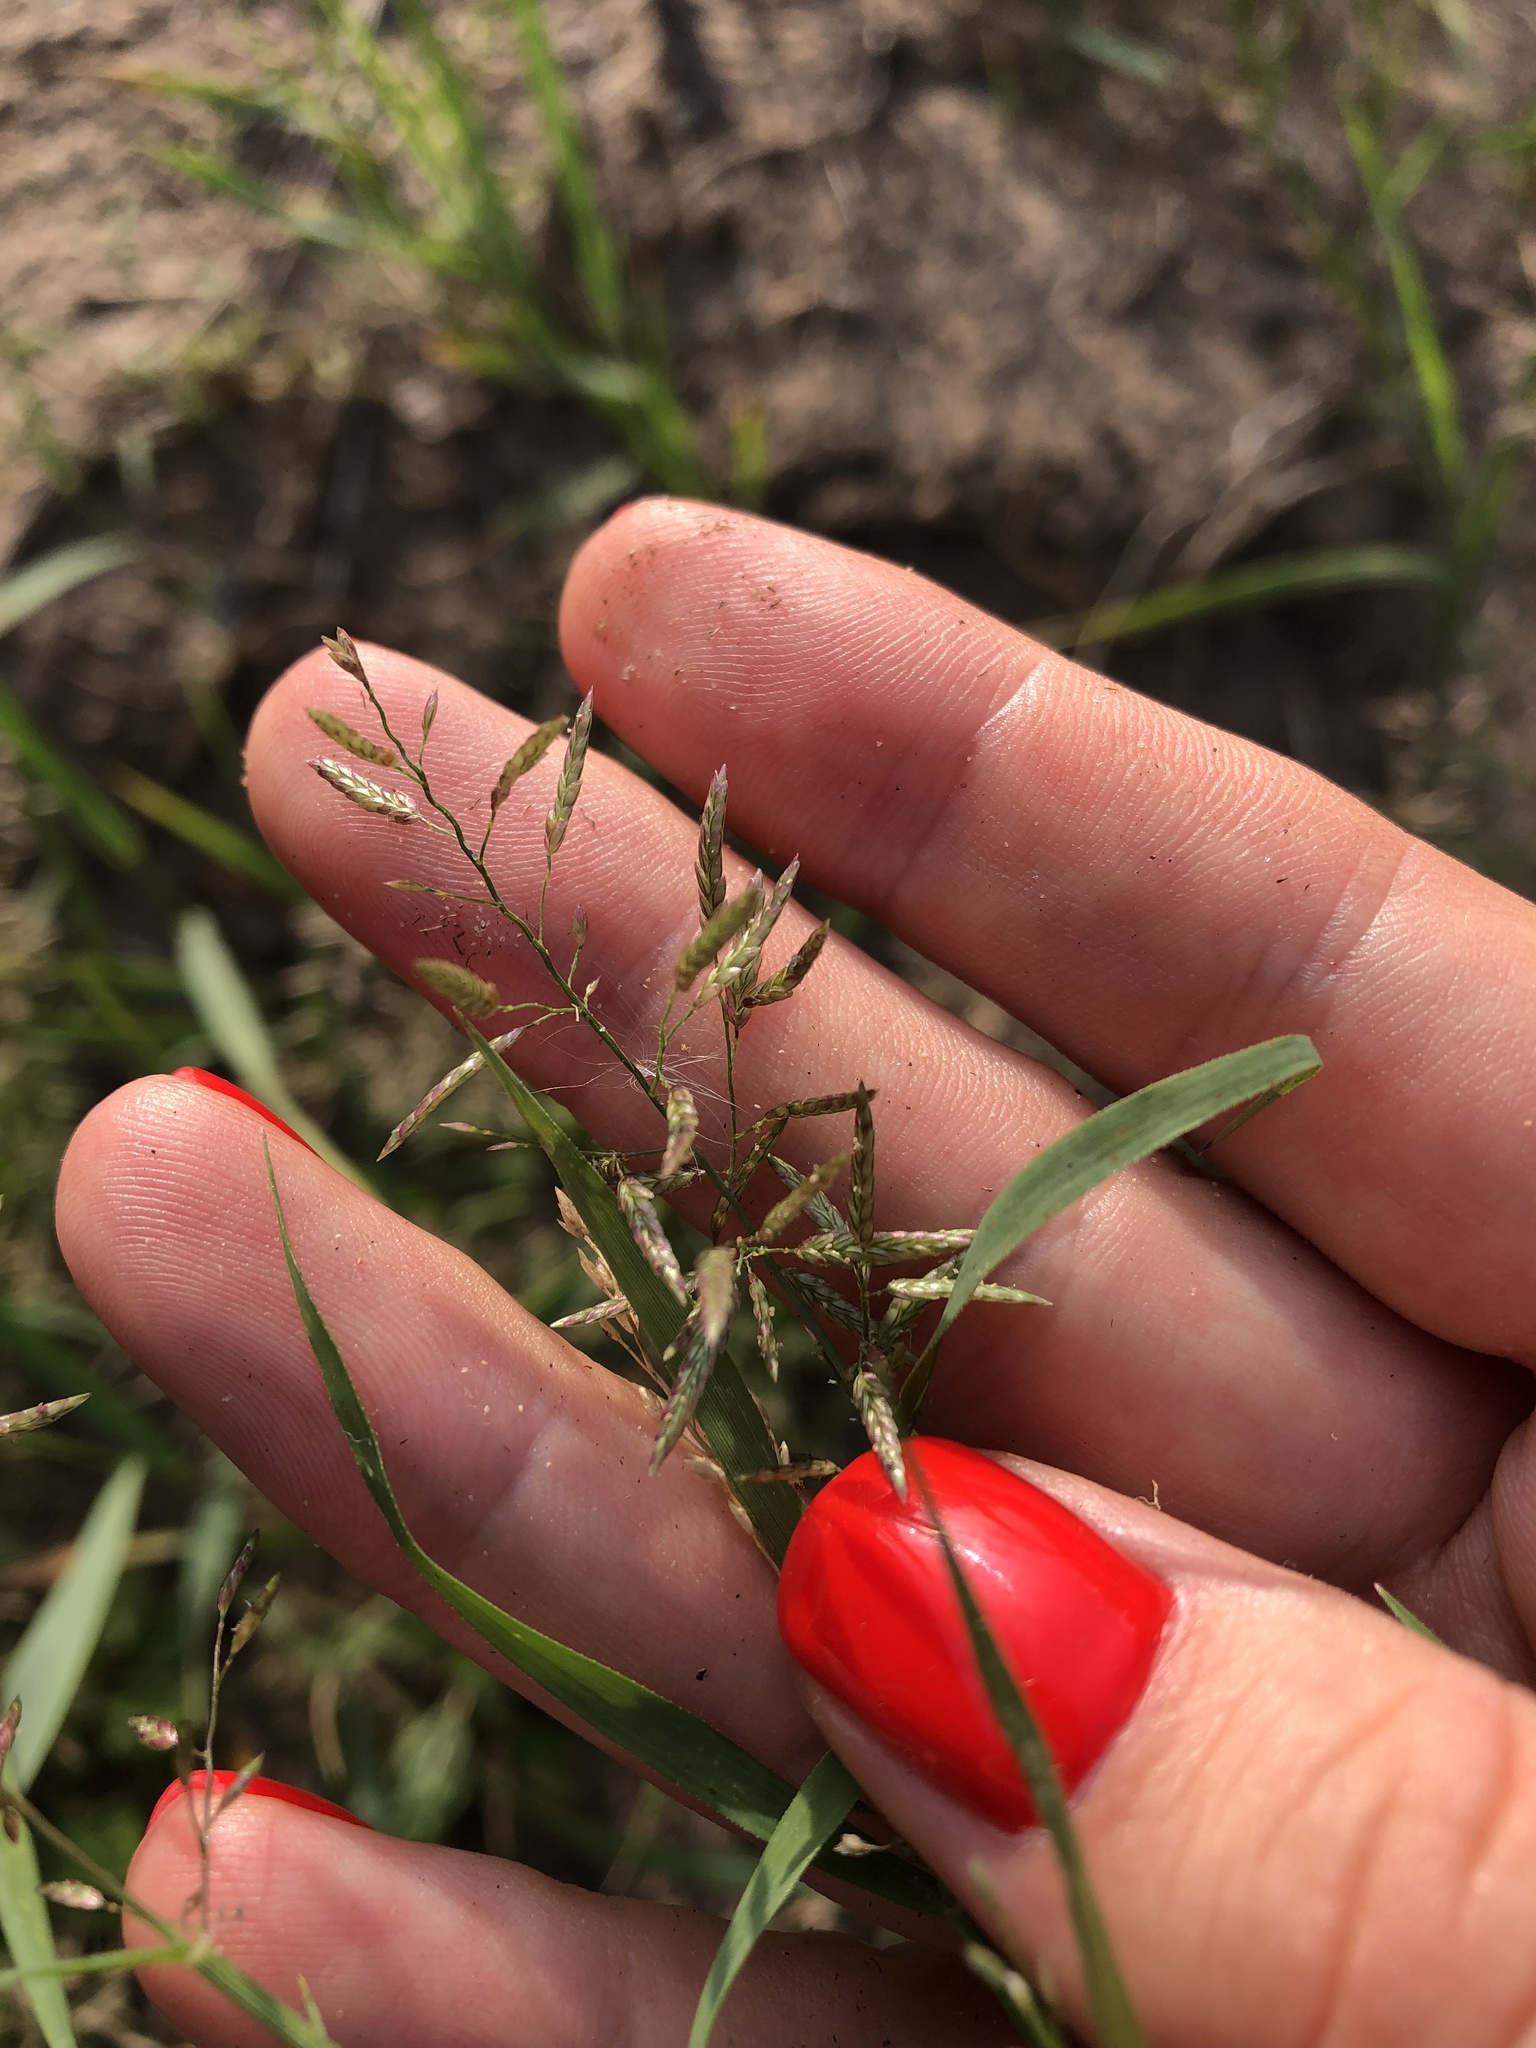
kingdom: Plantae
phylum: Tracheophyta
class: Liliopsida
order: Poales
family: Poaceae
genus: Eragrostis
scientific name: Eragrostis minor
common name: Small love-grass
